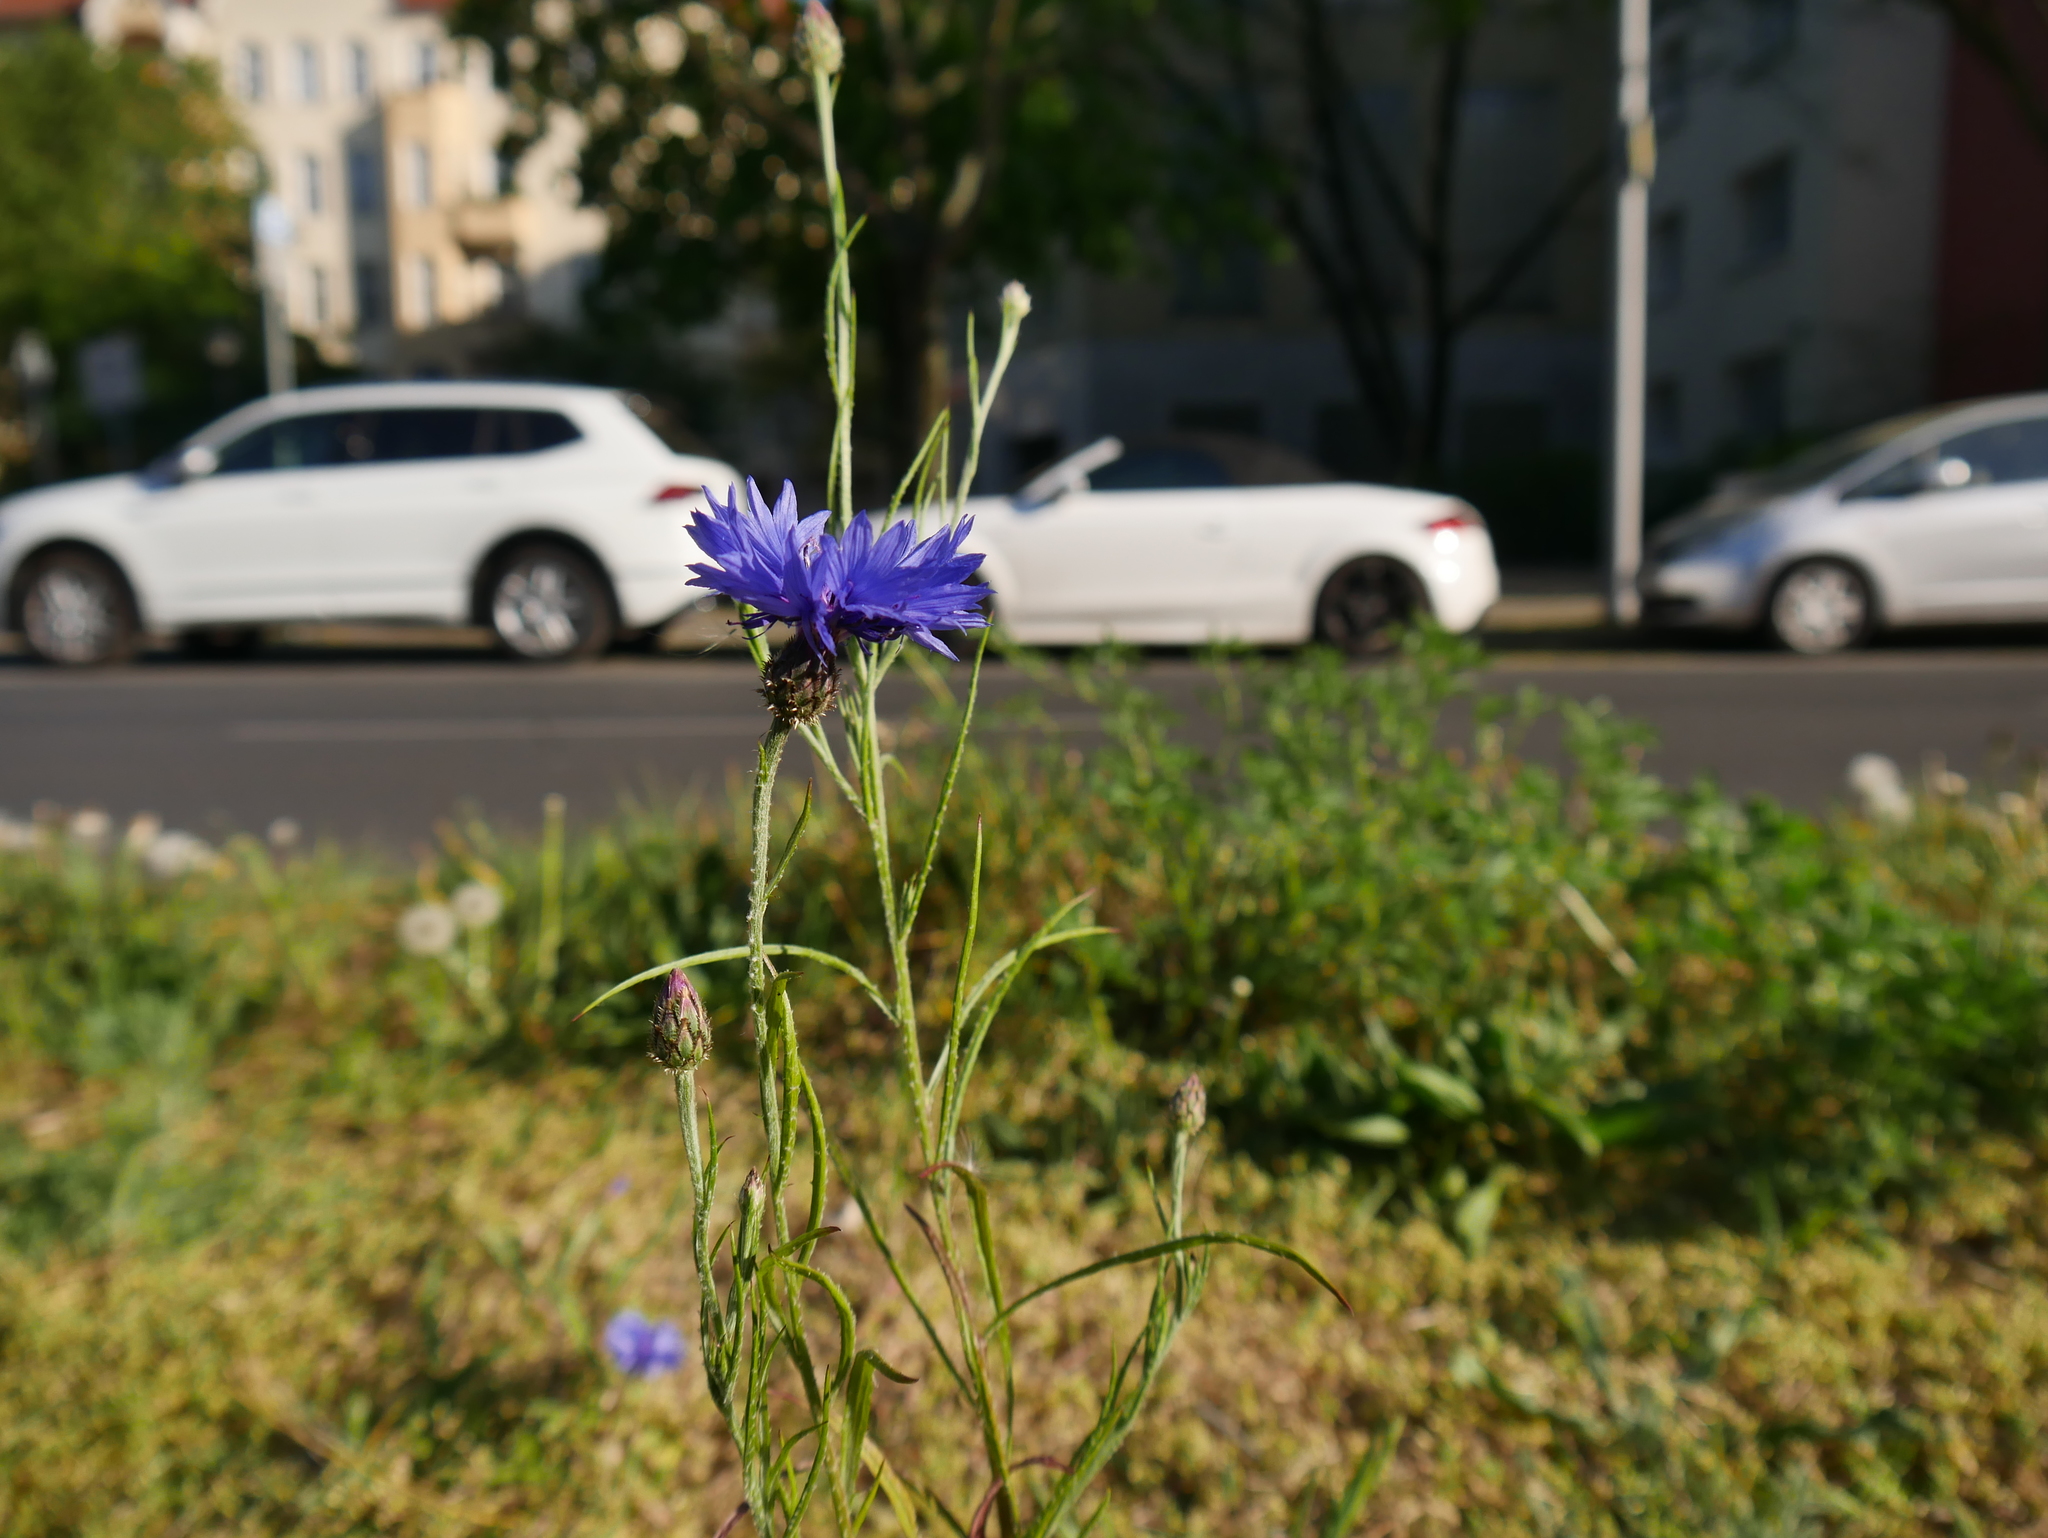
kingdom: Plantae
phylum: Tracheophyta
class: Magnoliopsida
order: Asterales
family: Asteraceae
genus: Centaurea
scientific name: Centaurea cyanus
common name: Cornflower
